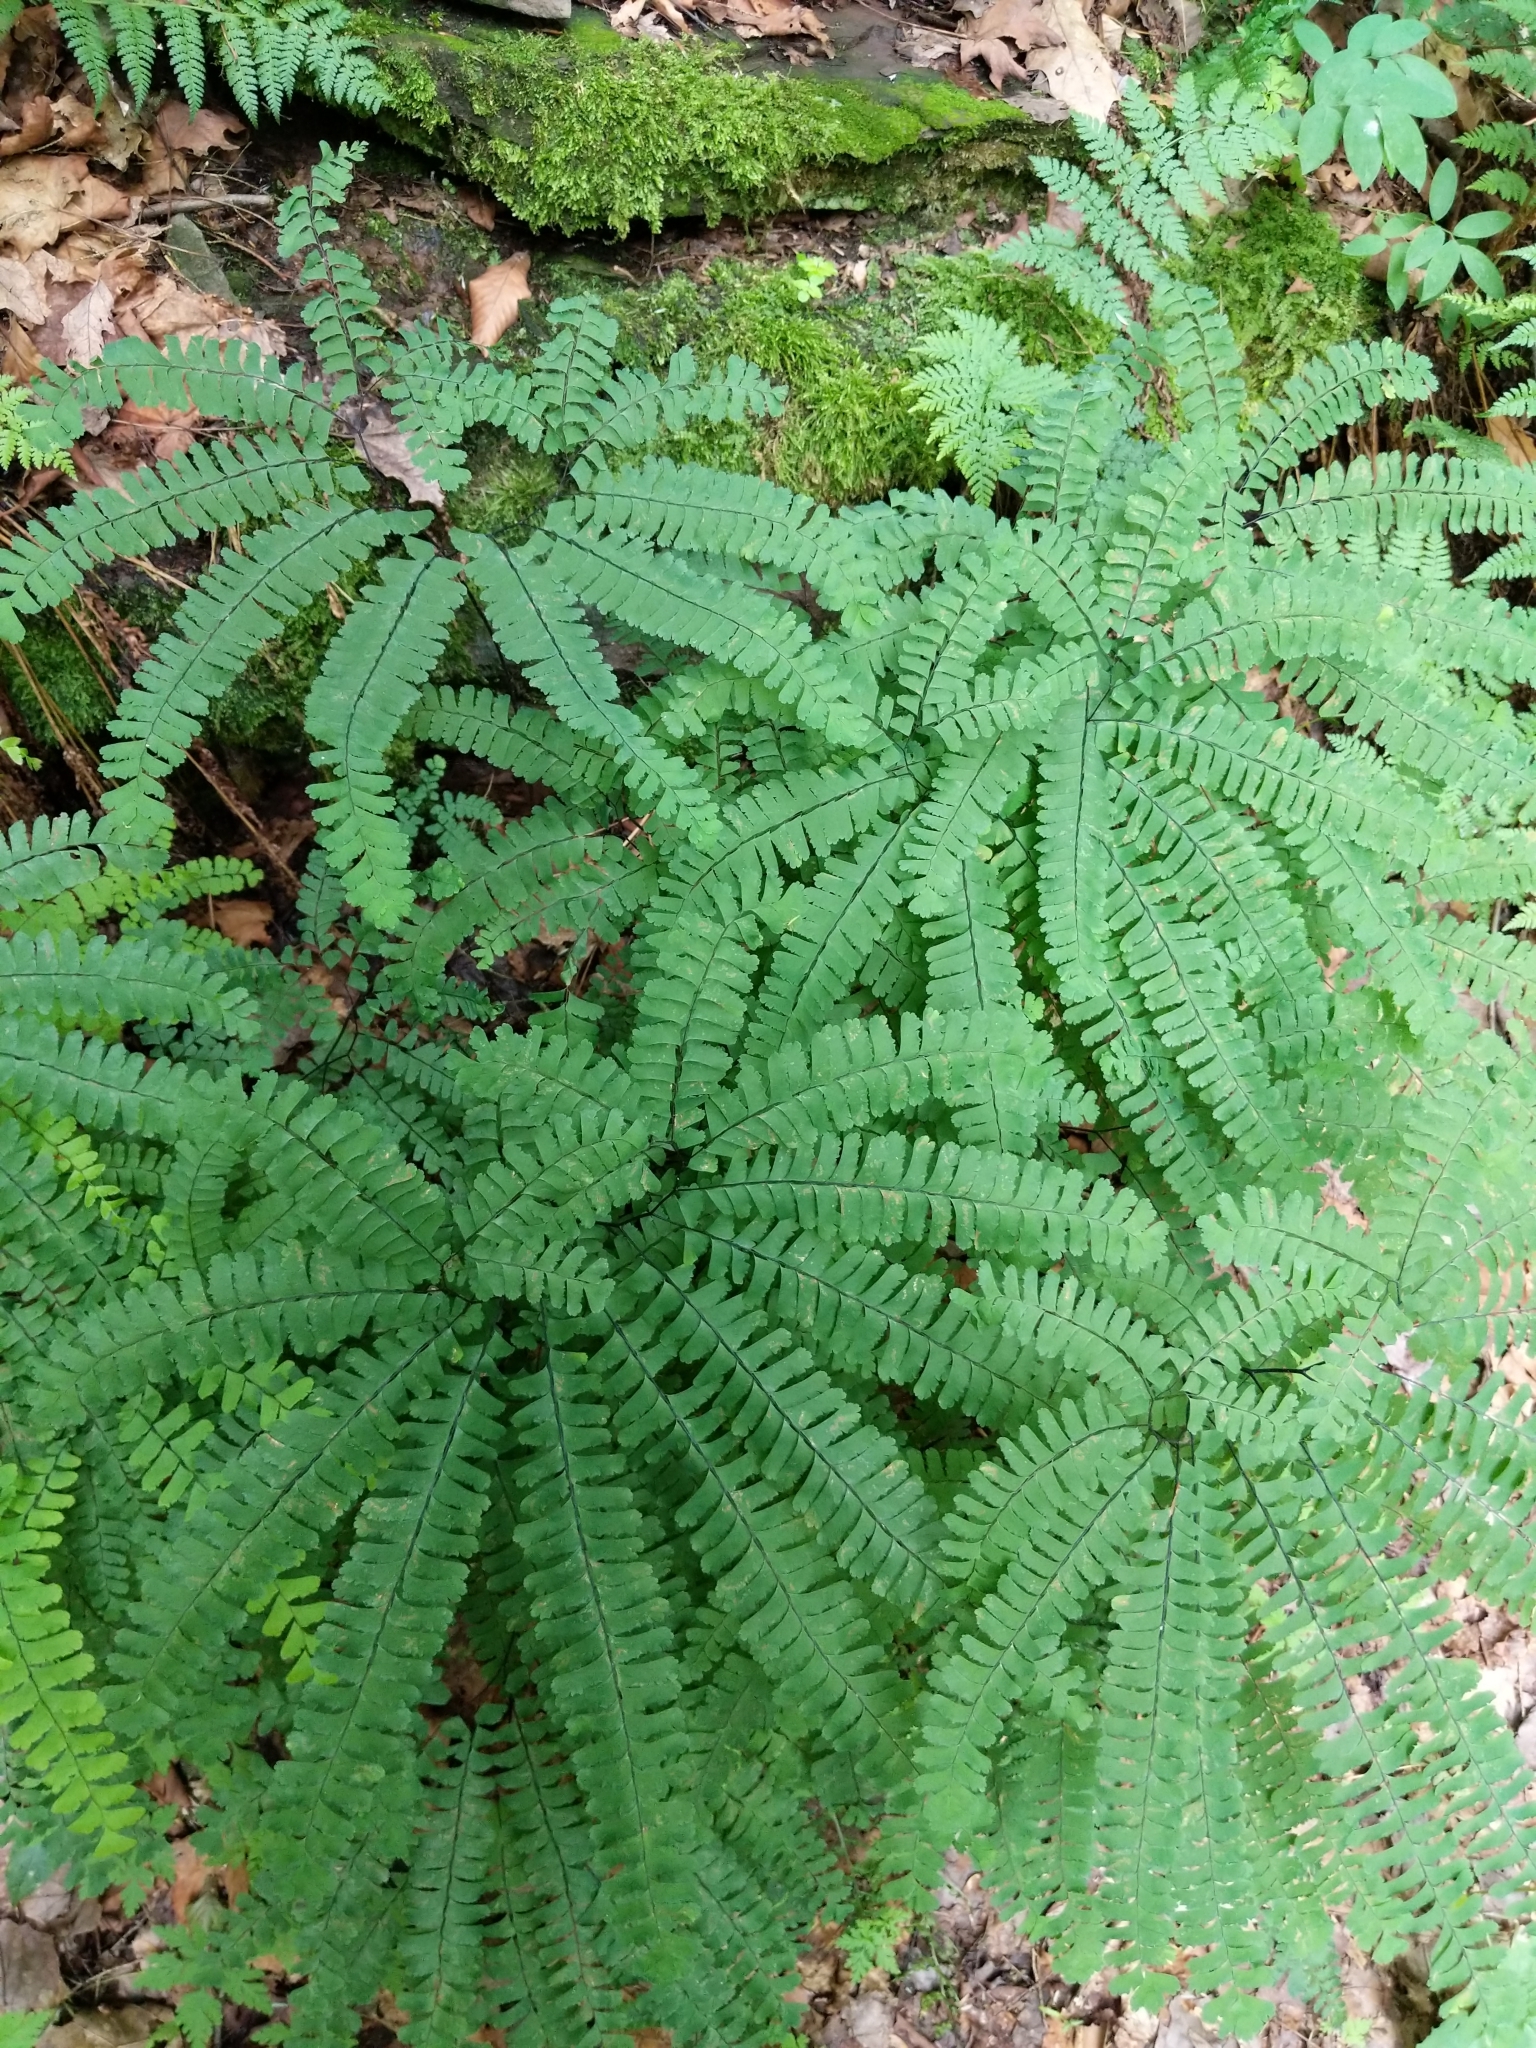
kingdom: Plantae
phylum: Tracheophyta
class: Polypodiopsida
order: Polypodiales
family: Pteridaceae
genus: Adiantum
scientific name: Adiantum pedatum
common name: Five-finger fern
